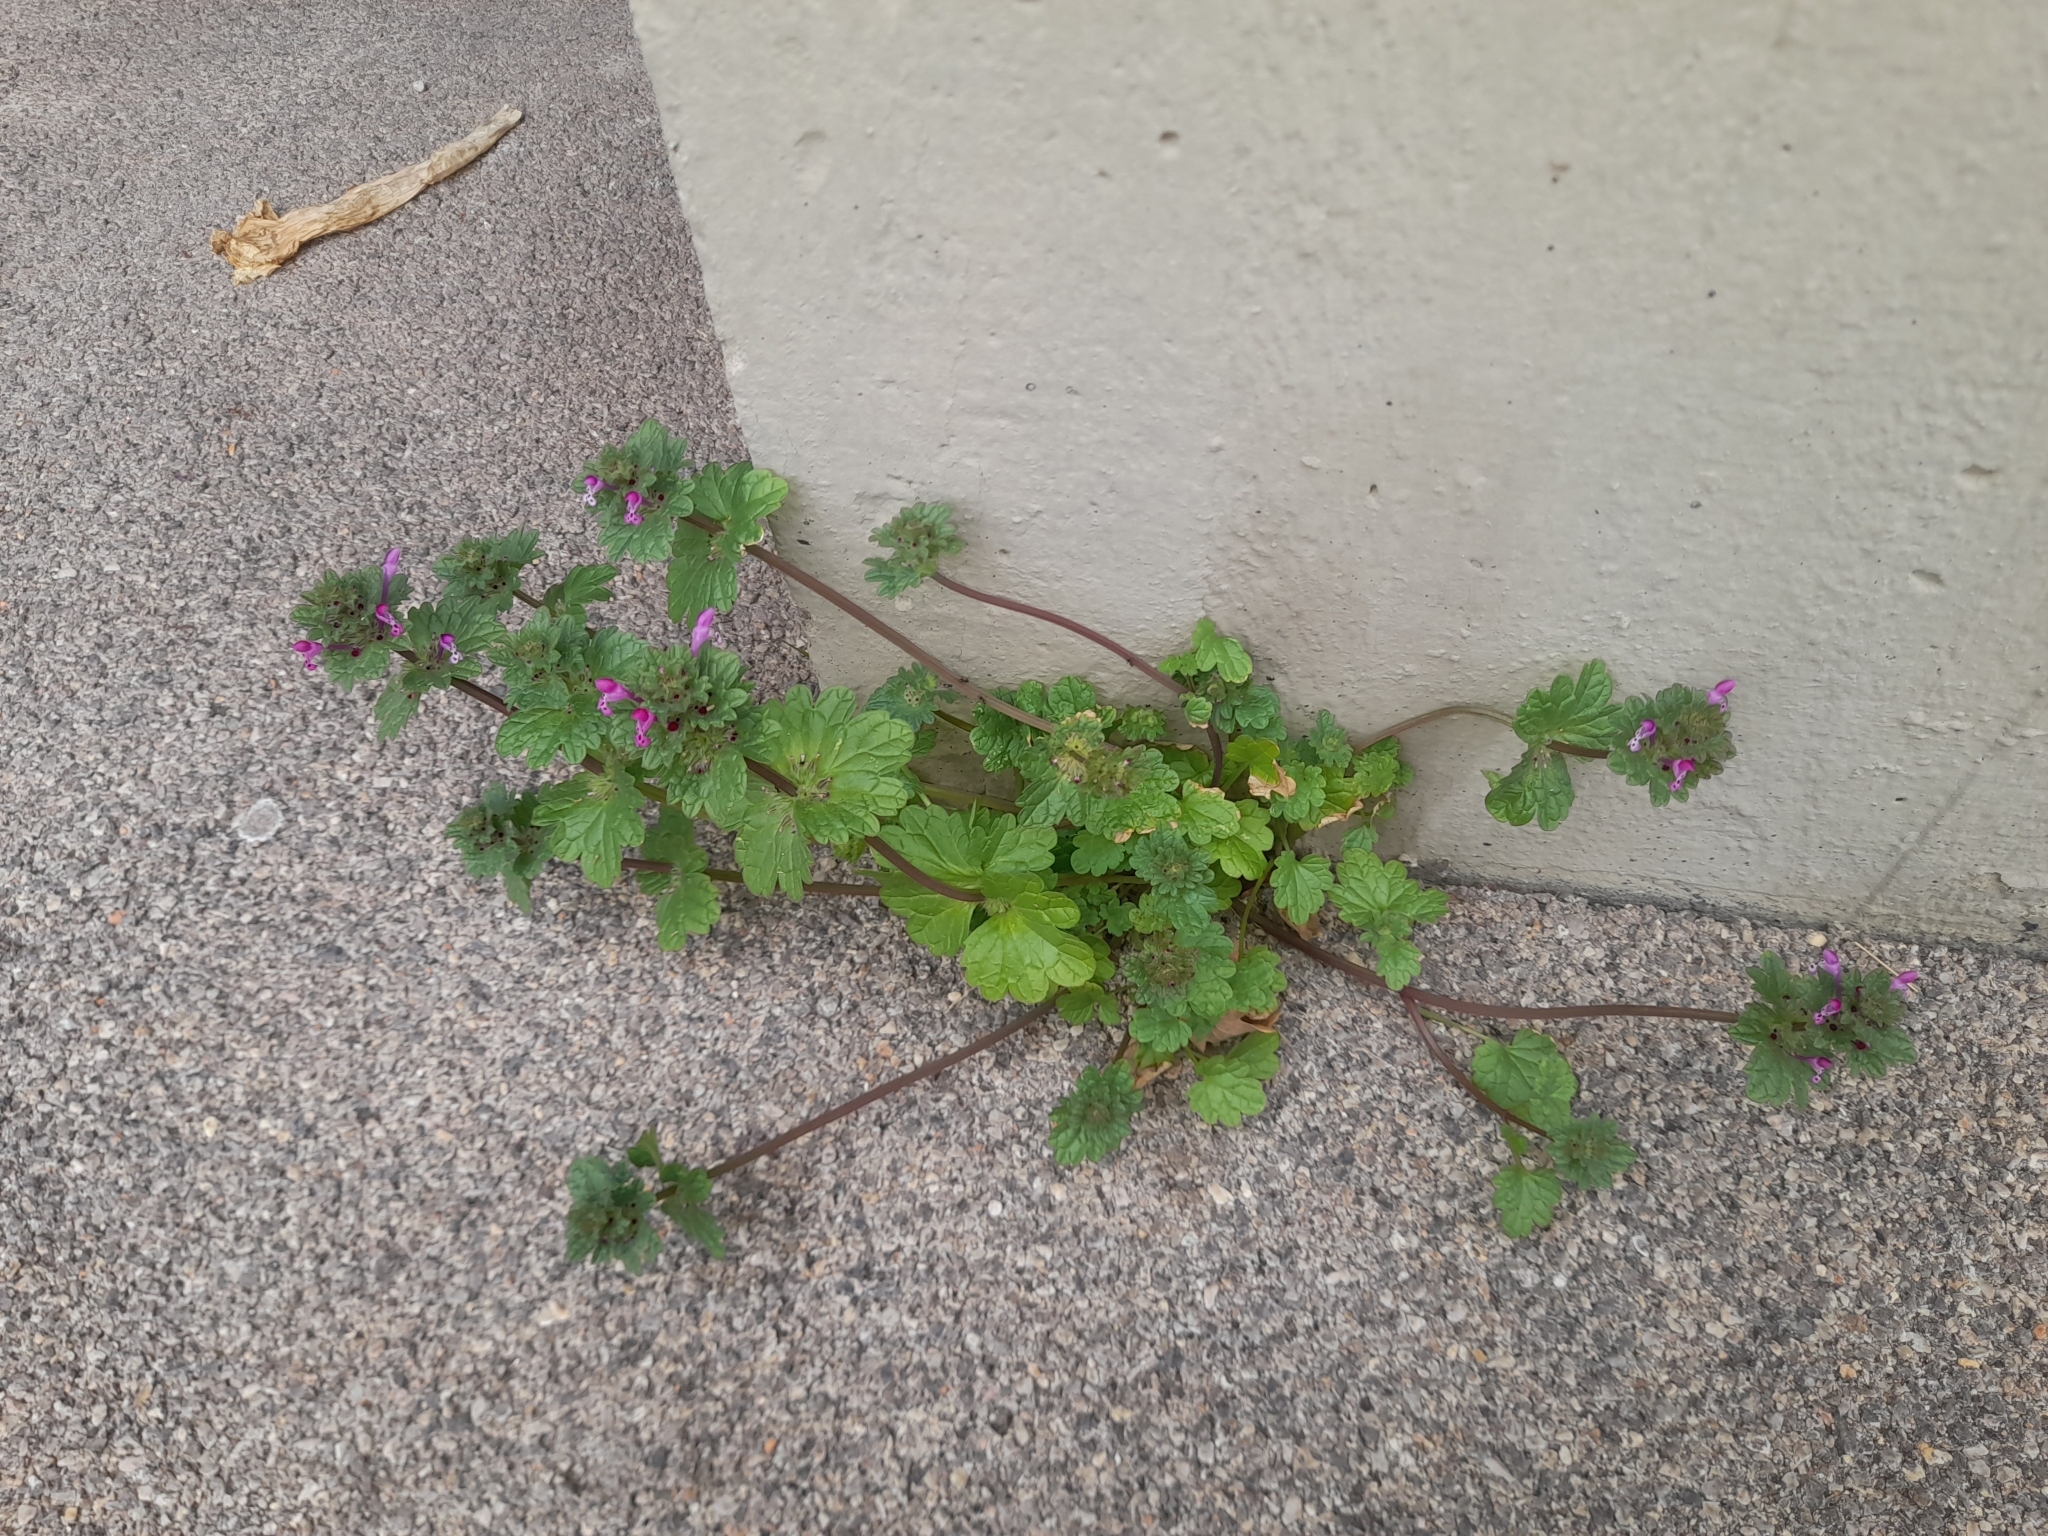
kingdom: Plantae
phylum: Tracheophyta
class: Magnoliopsida
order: Lamiales
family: Lamiaceae
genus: Lamium
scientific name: Lamium amplexicaule
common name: Henbit dead-nettle
